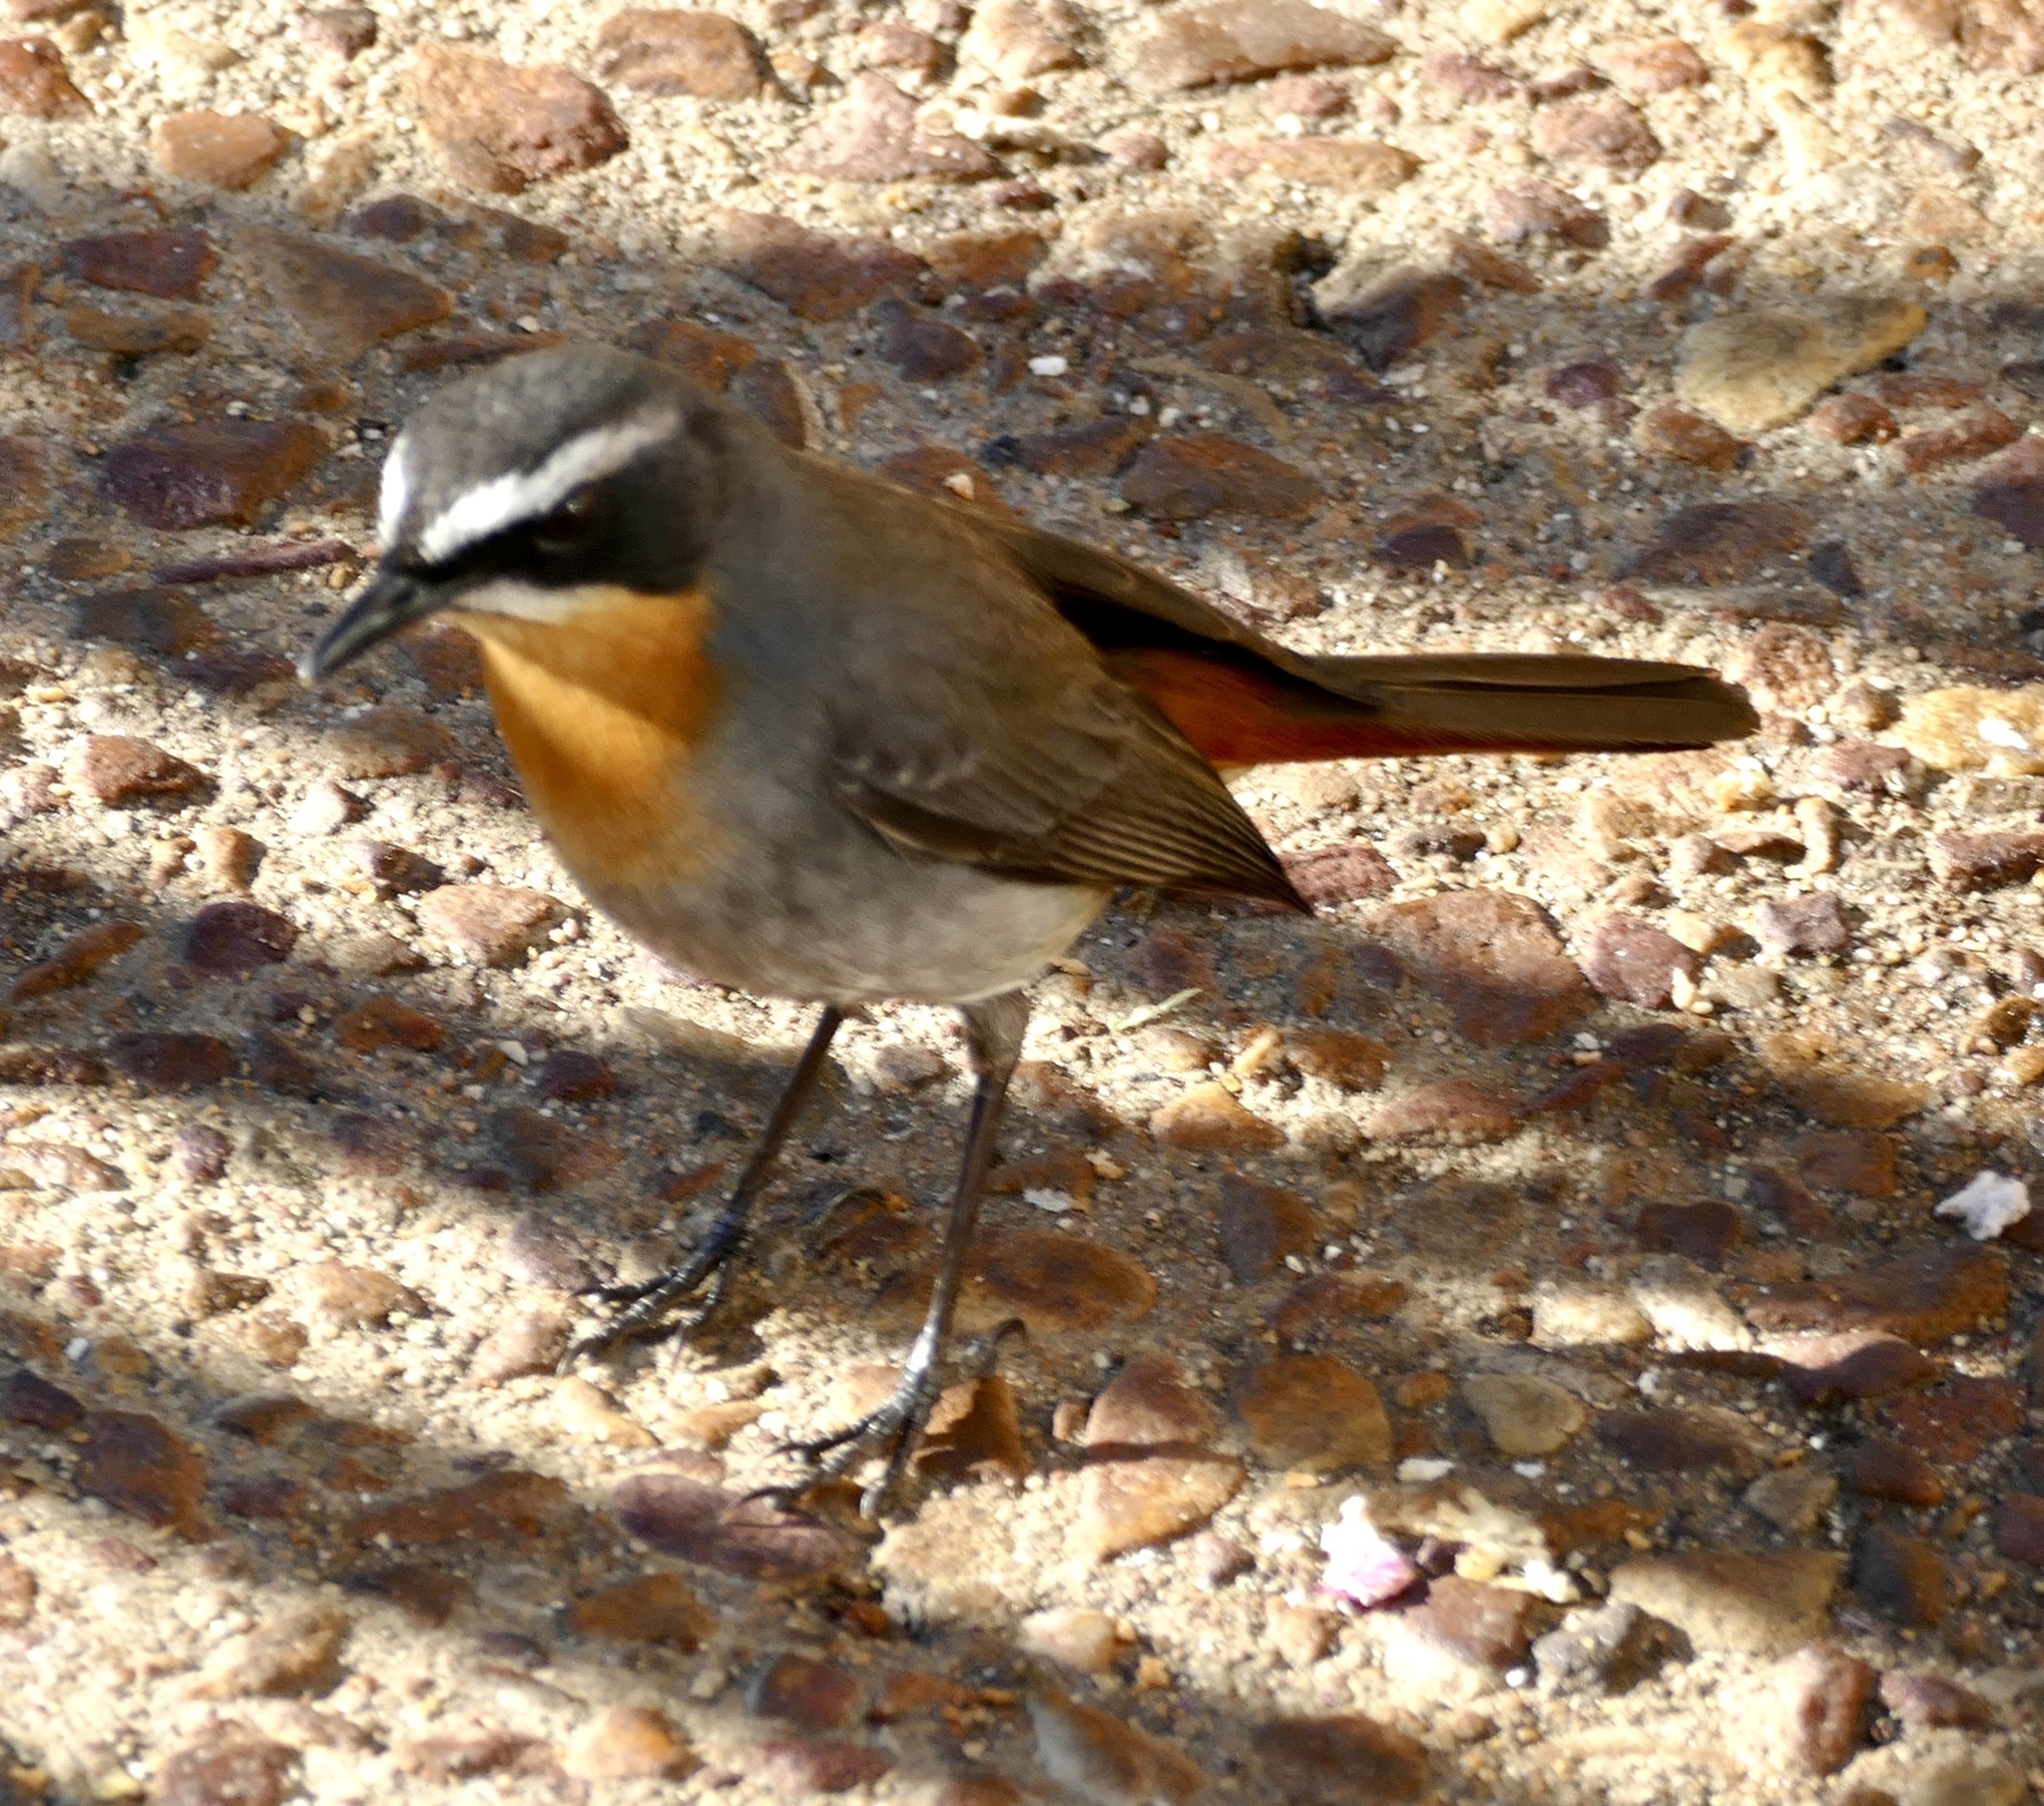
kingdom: Animalia
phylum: Chordata
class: Aves
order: Passeriformes
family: Muscicapidae
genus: Cossypha
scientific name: Cossypha caffra
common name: Cape robin-chat
